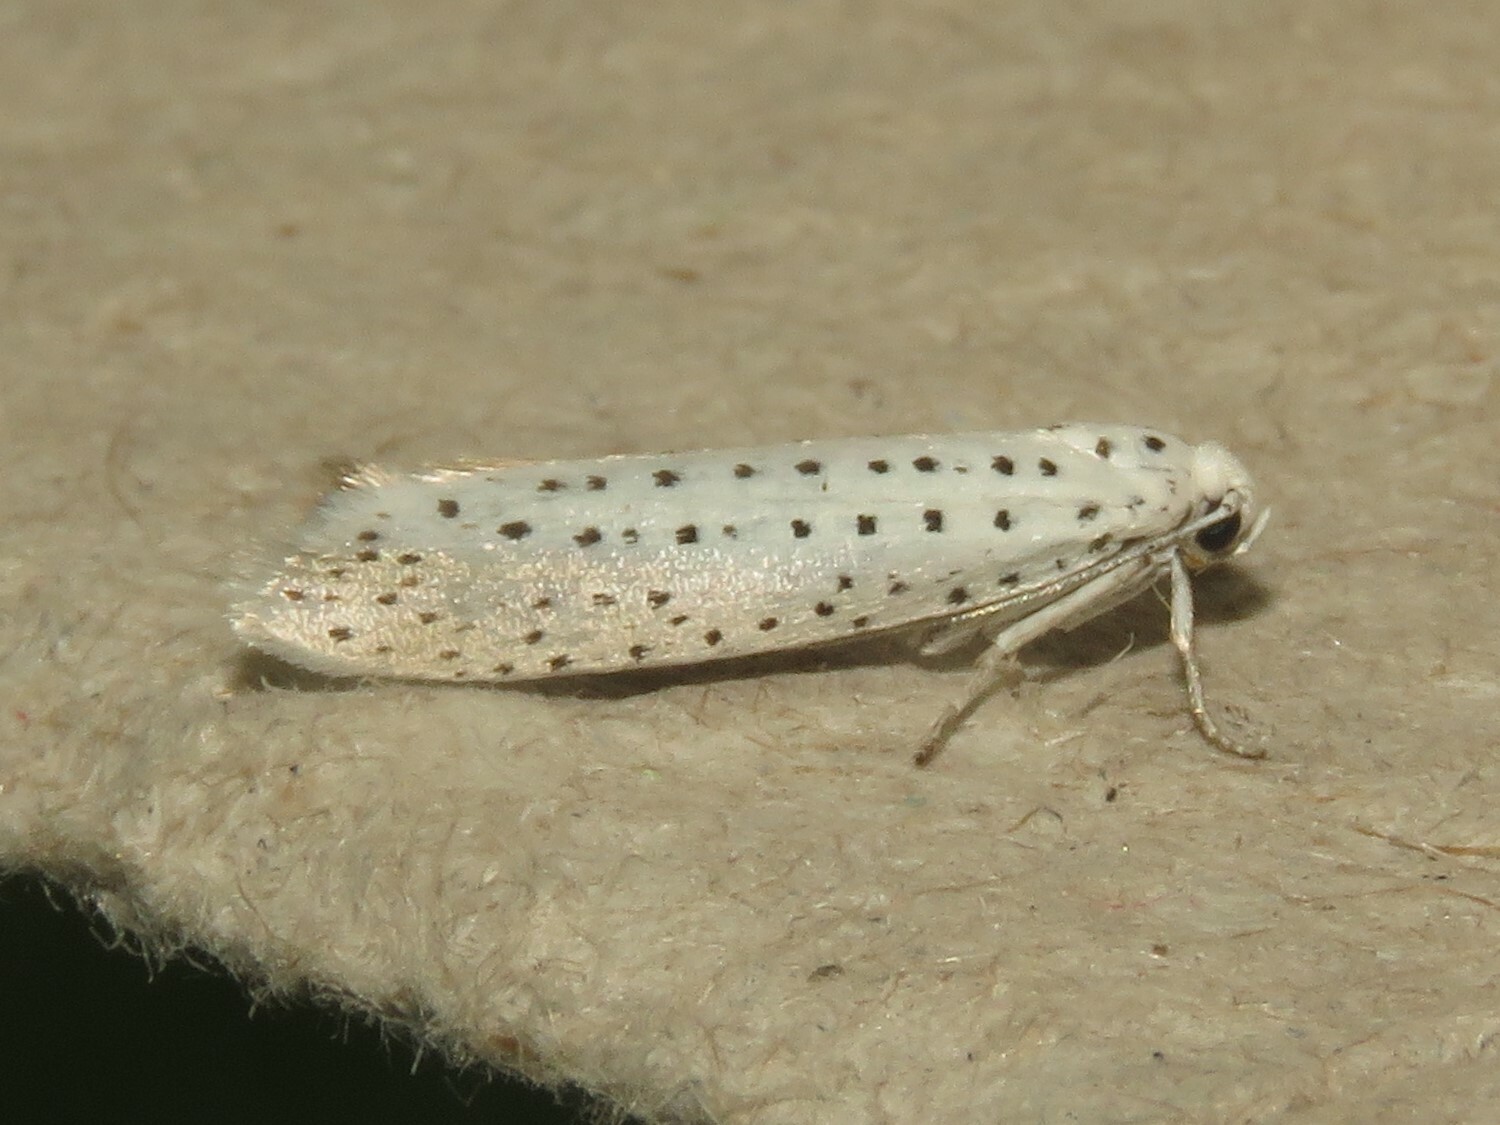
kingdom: Animalia
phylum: Arthropoda
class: Insecta
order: Lepidoptera
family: Yponomeutidae
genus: Yponomeuta
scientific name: Yponomeuta multipunctella
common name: American ermine moth
